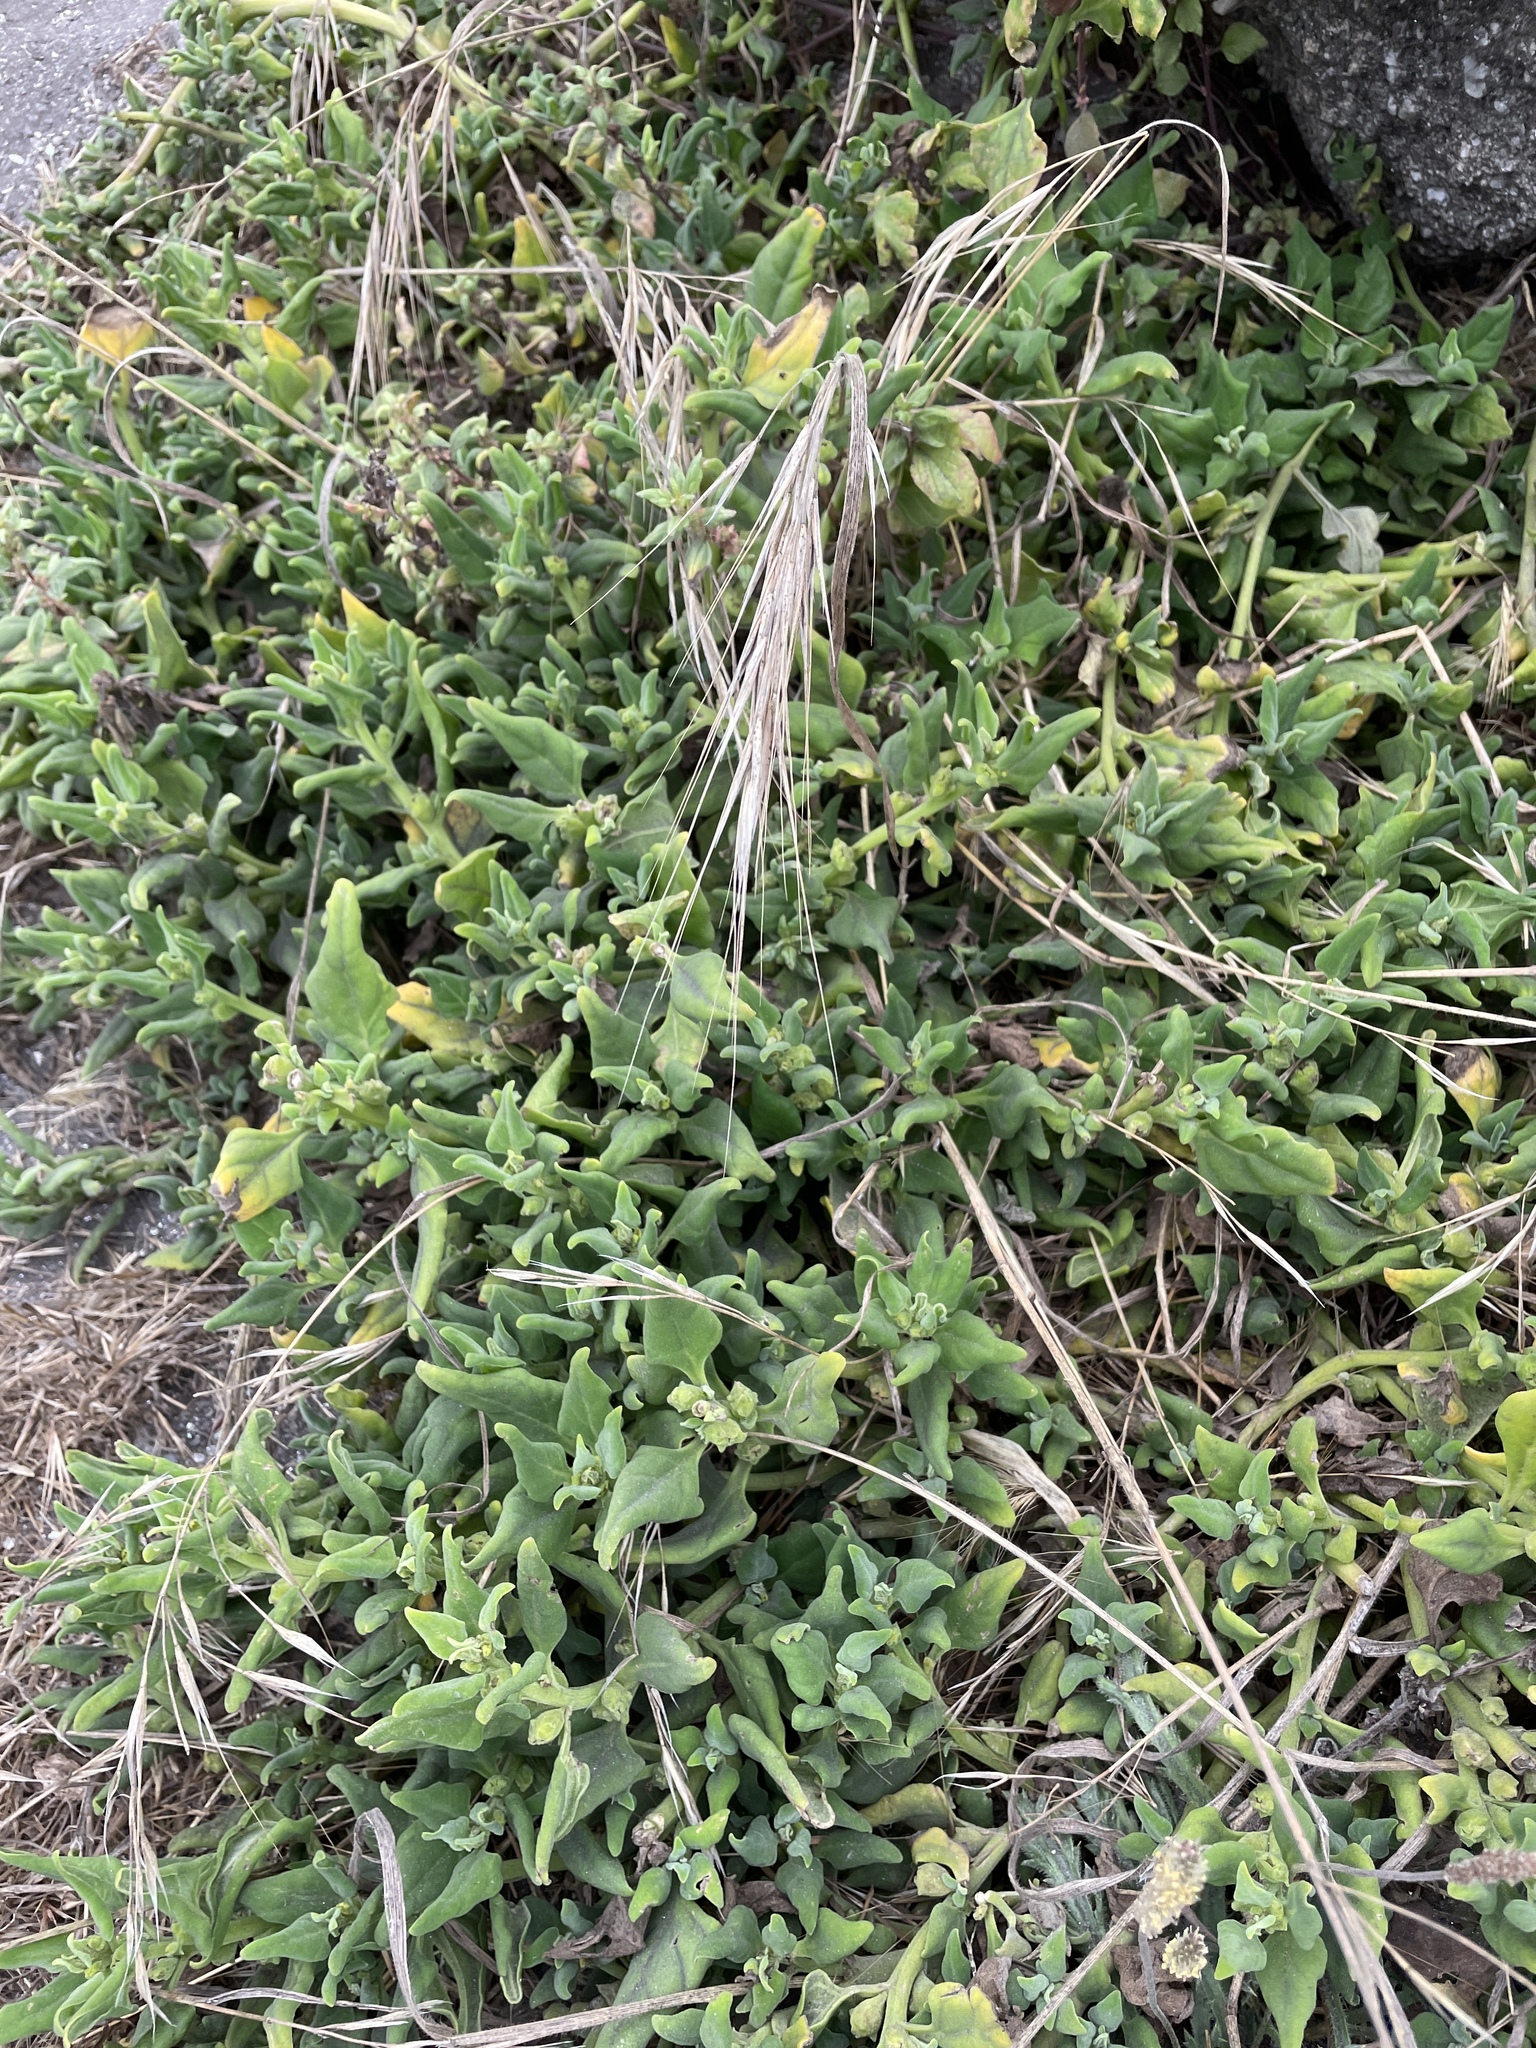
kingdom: Plantae
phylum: Tracheophyta
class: Magnoliopsida
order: Caryophyllales
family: Aizoaceae
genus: Tetragonia
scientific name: Tetragonia tetragonoides
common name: New zealand-spinach
